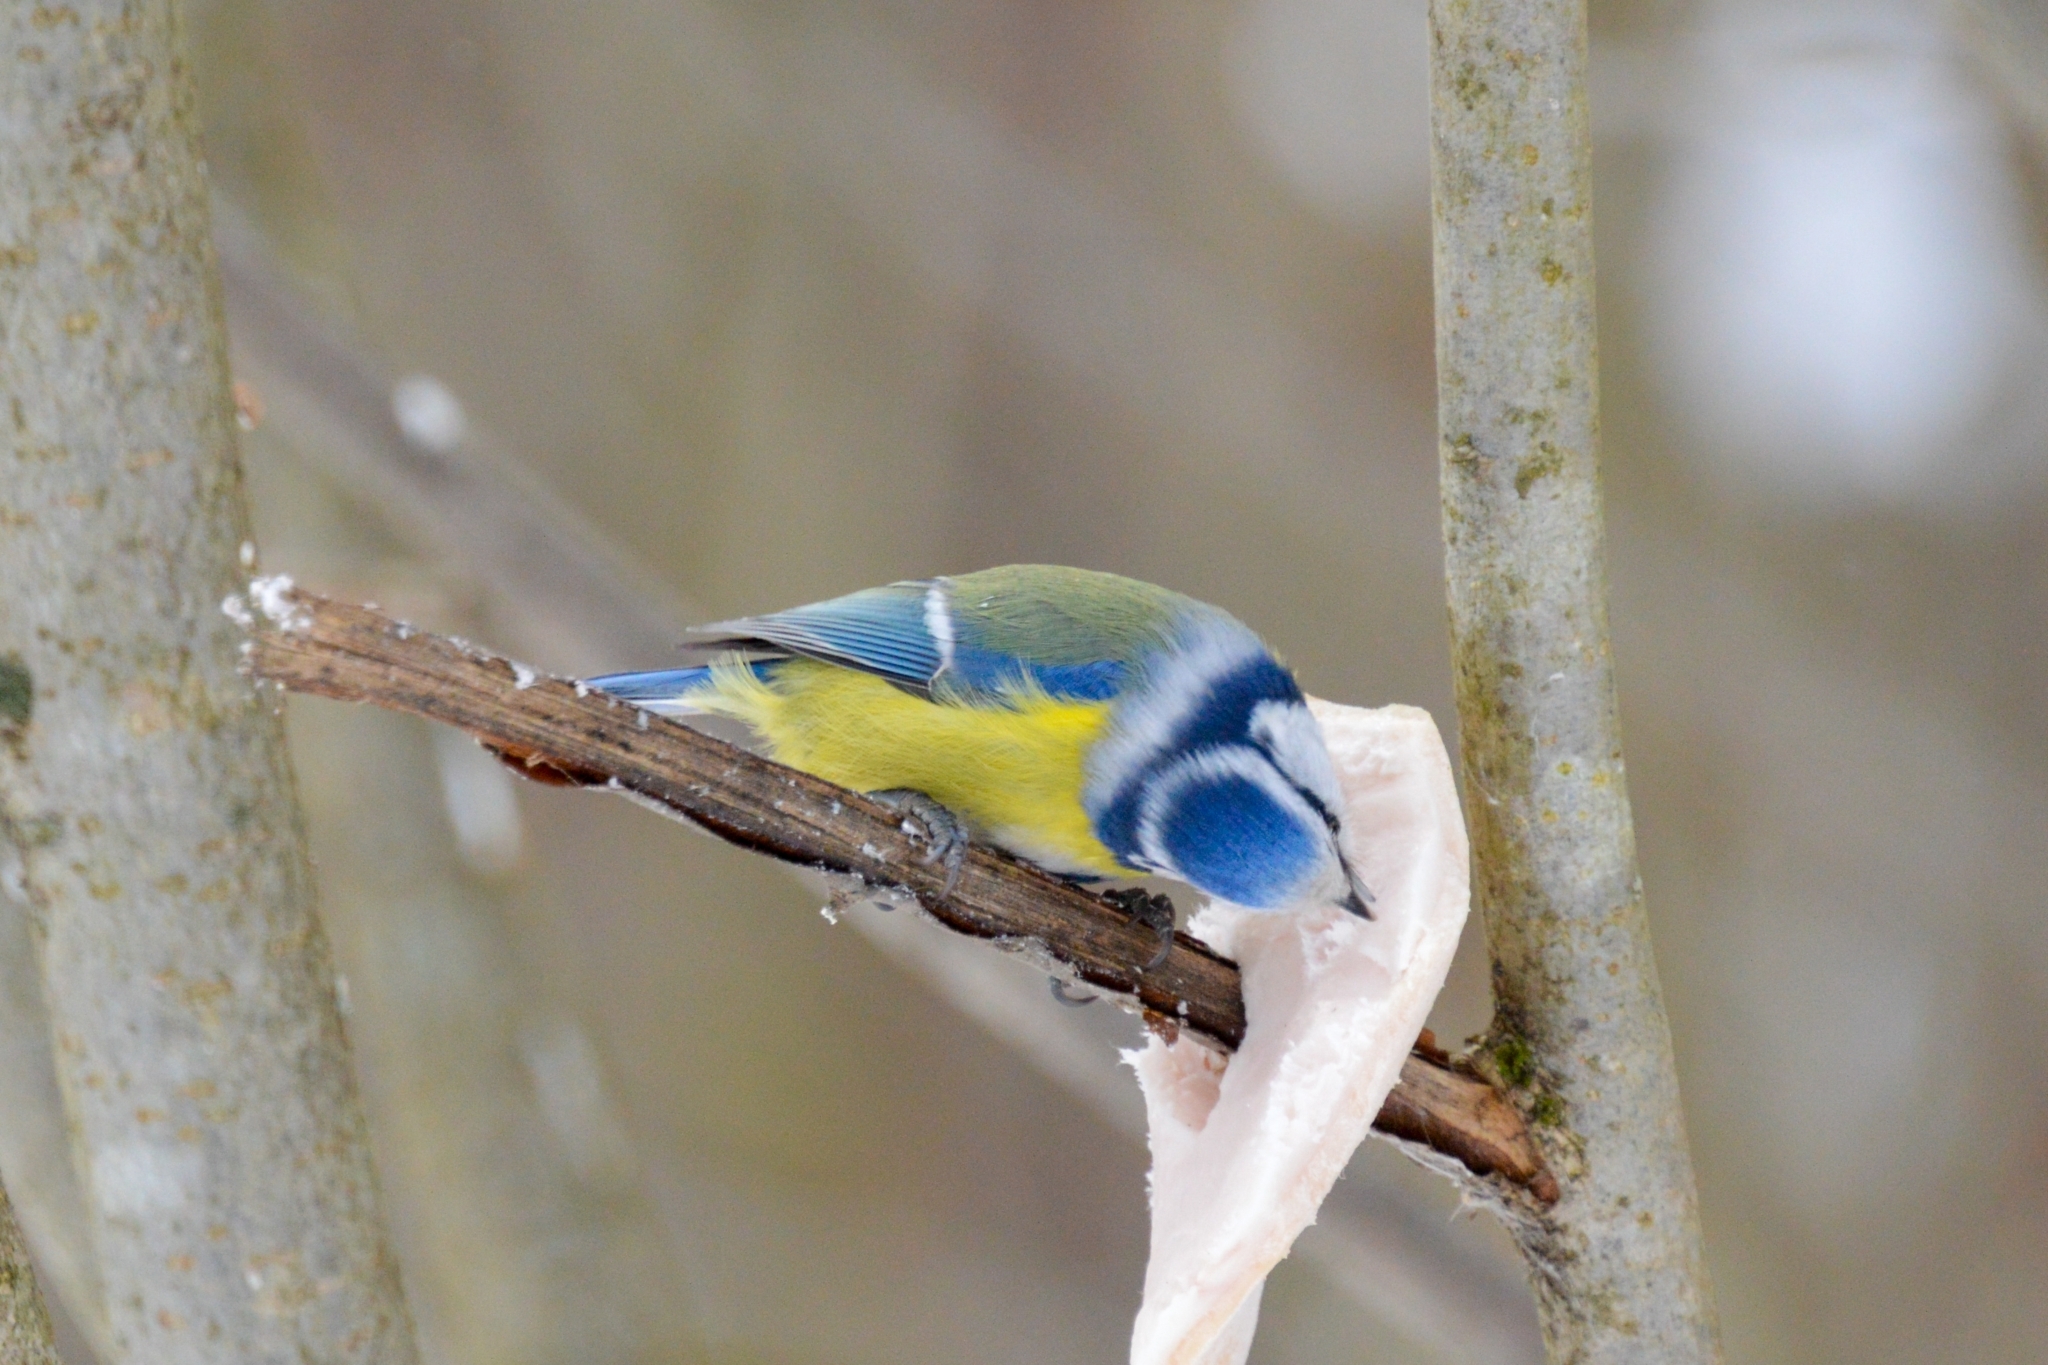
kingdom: Animalia
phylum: Chordata
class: Aves
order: Passeriformes
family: Paridae
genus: Cyanistes
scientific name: Cyanistes caeruleus
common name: Eurasian blue tit
